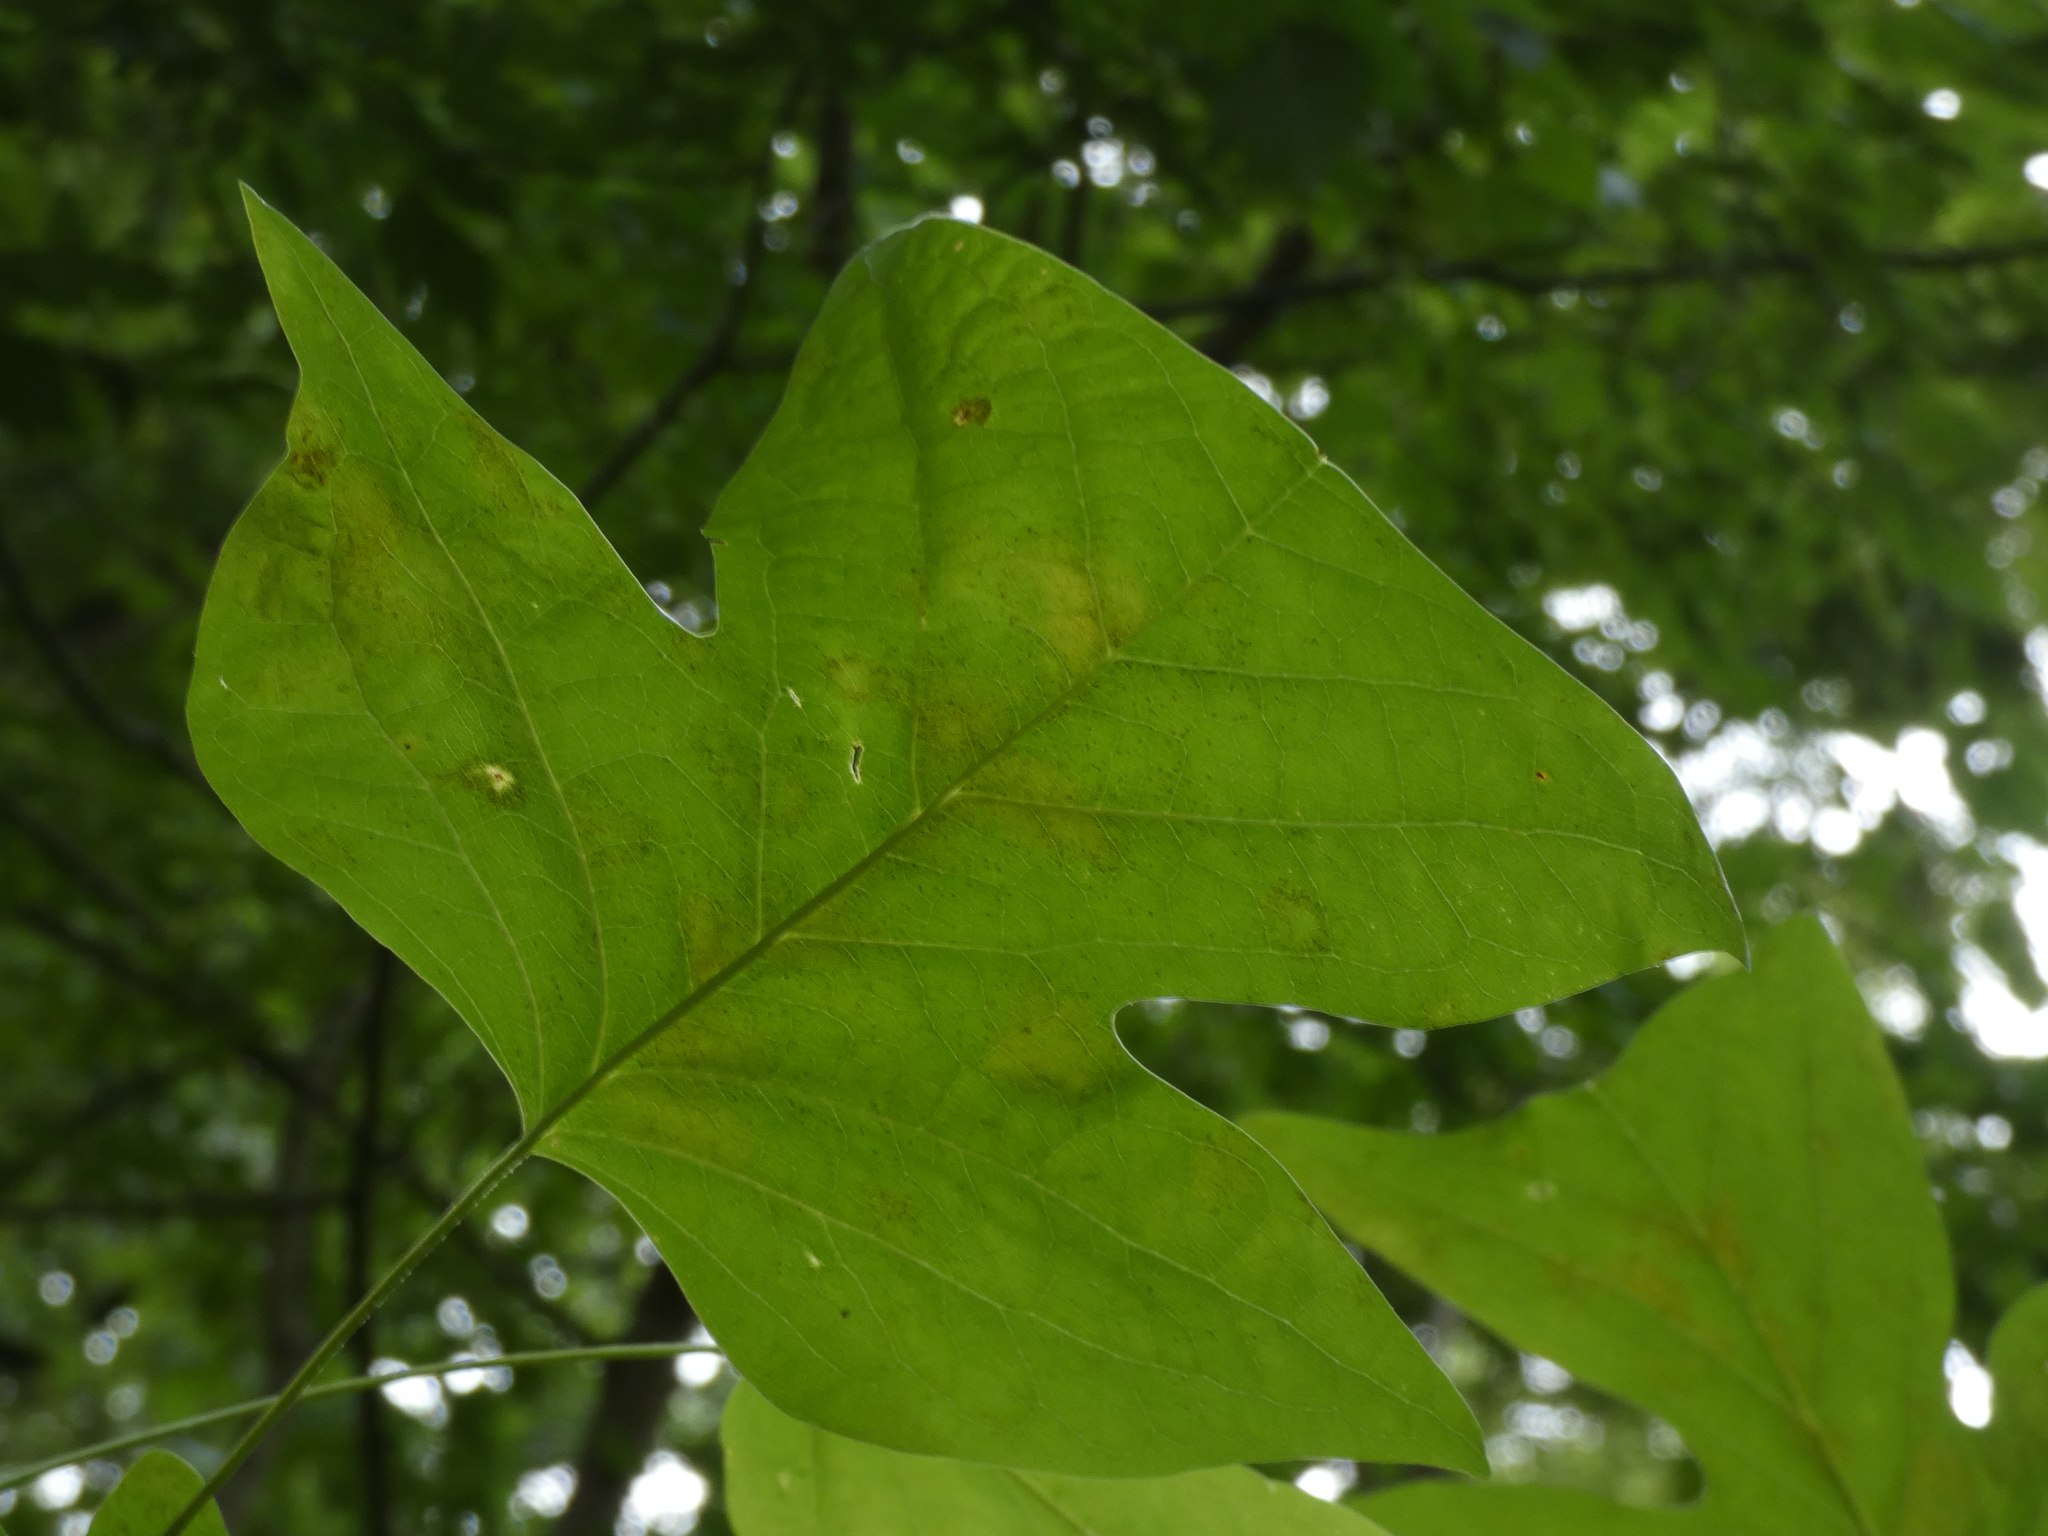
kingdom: Plantae
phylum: Tracheophyta
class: Magnoliopsida
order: Magnoliales
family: Magnoliaceae
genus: Liriodendron
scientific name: Liriodendron tulipifera
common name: Tulip tree
